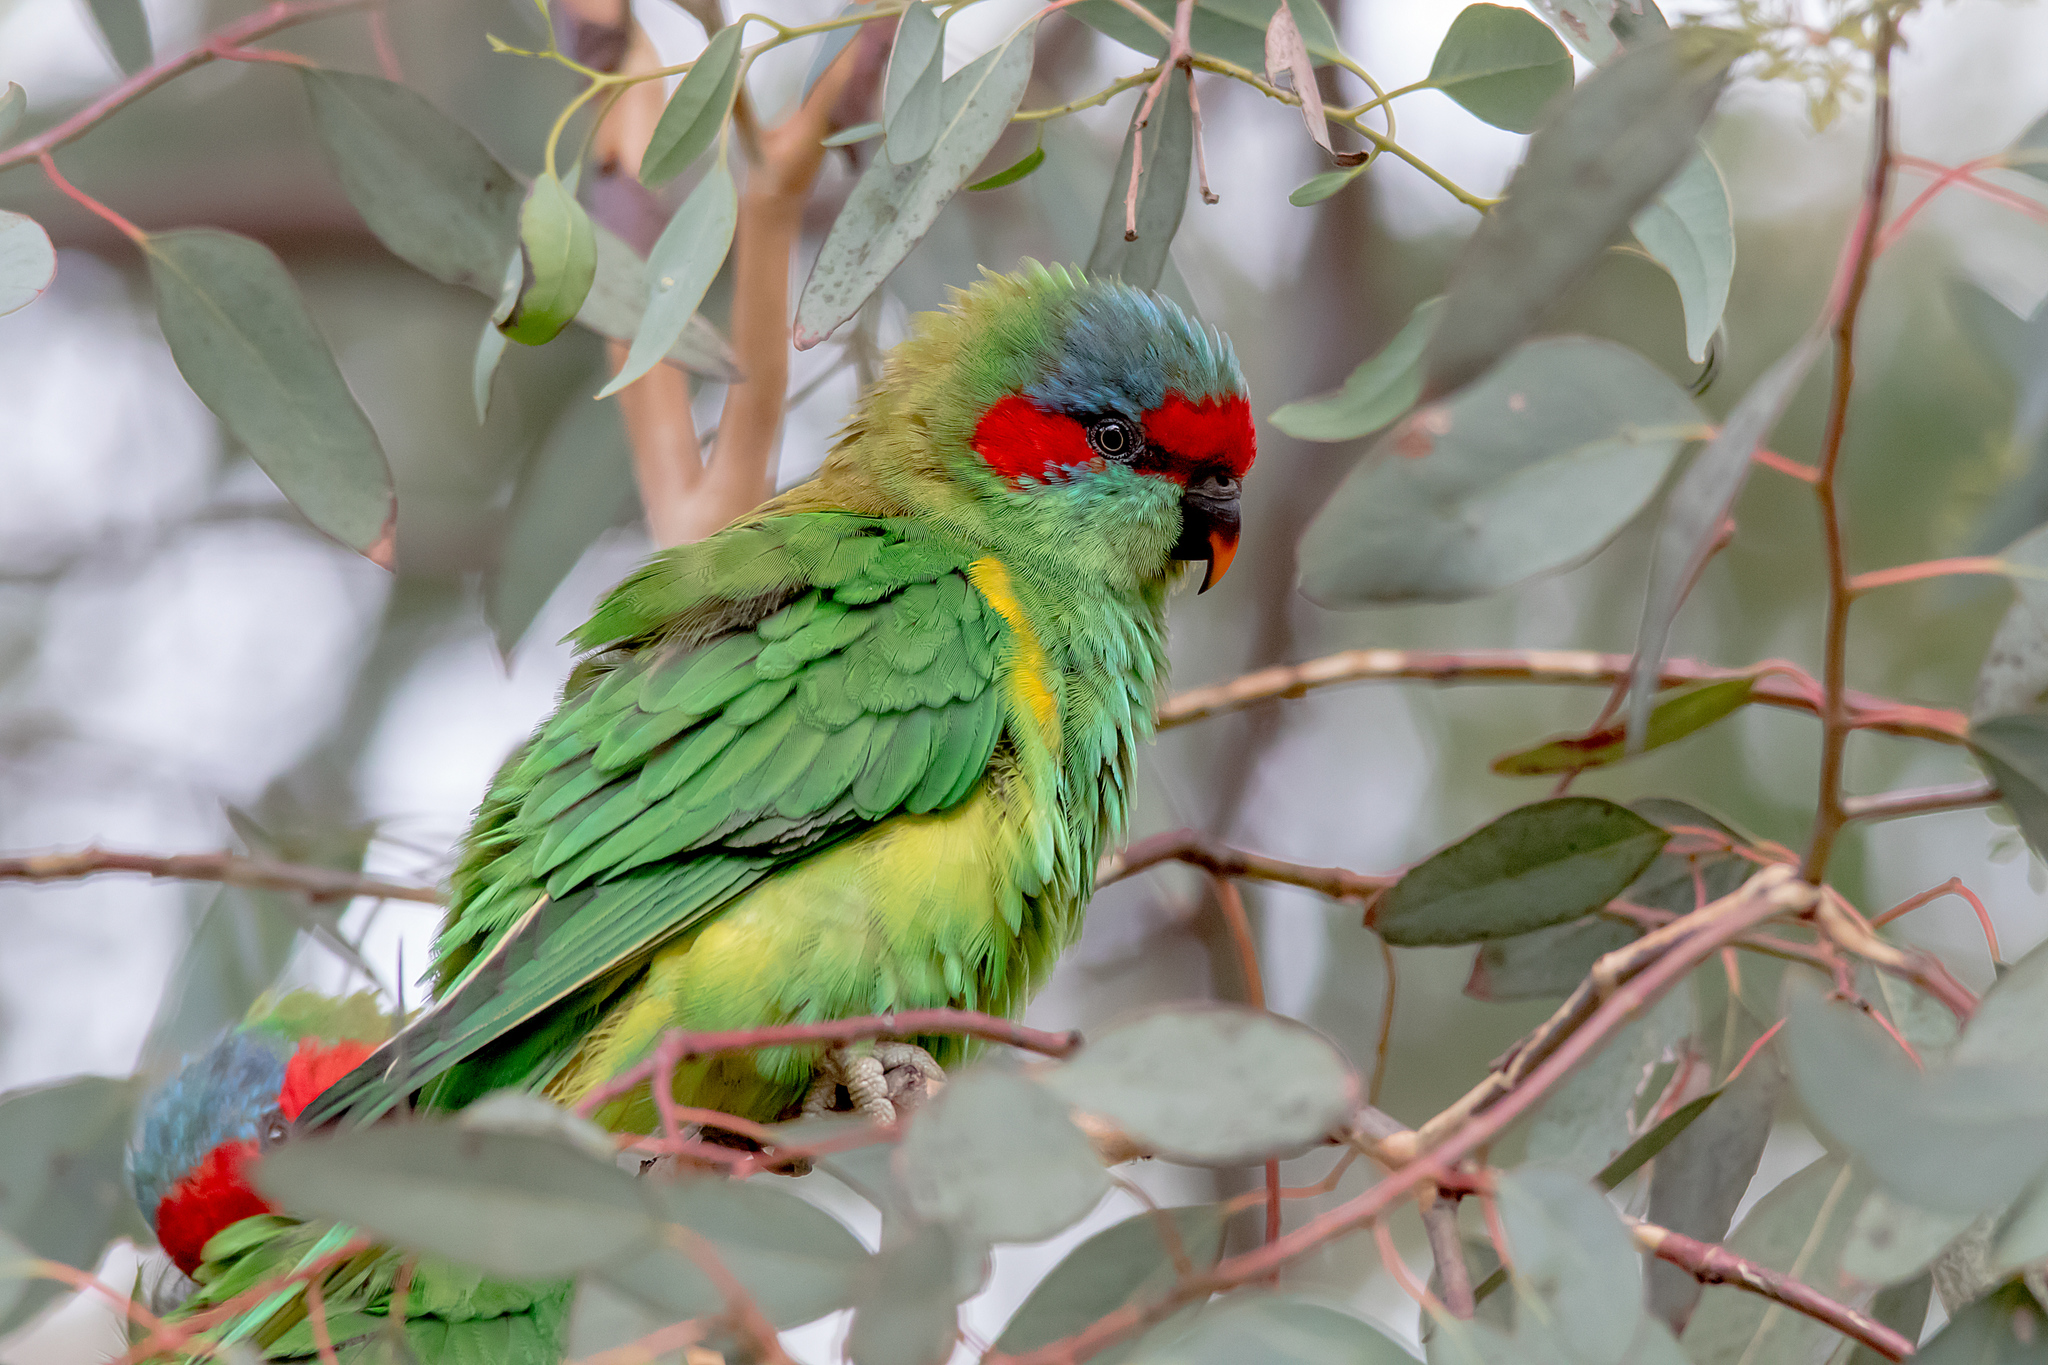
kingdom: Animalia
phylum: Chordata
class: Aves
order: Psittaciformes
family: Psittacidae
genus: Glossopsitta
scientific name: Glossopsitta concinna
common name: Musk lorikeet
